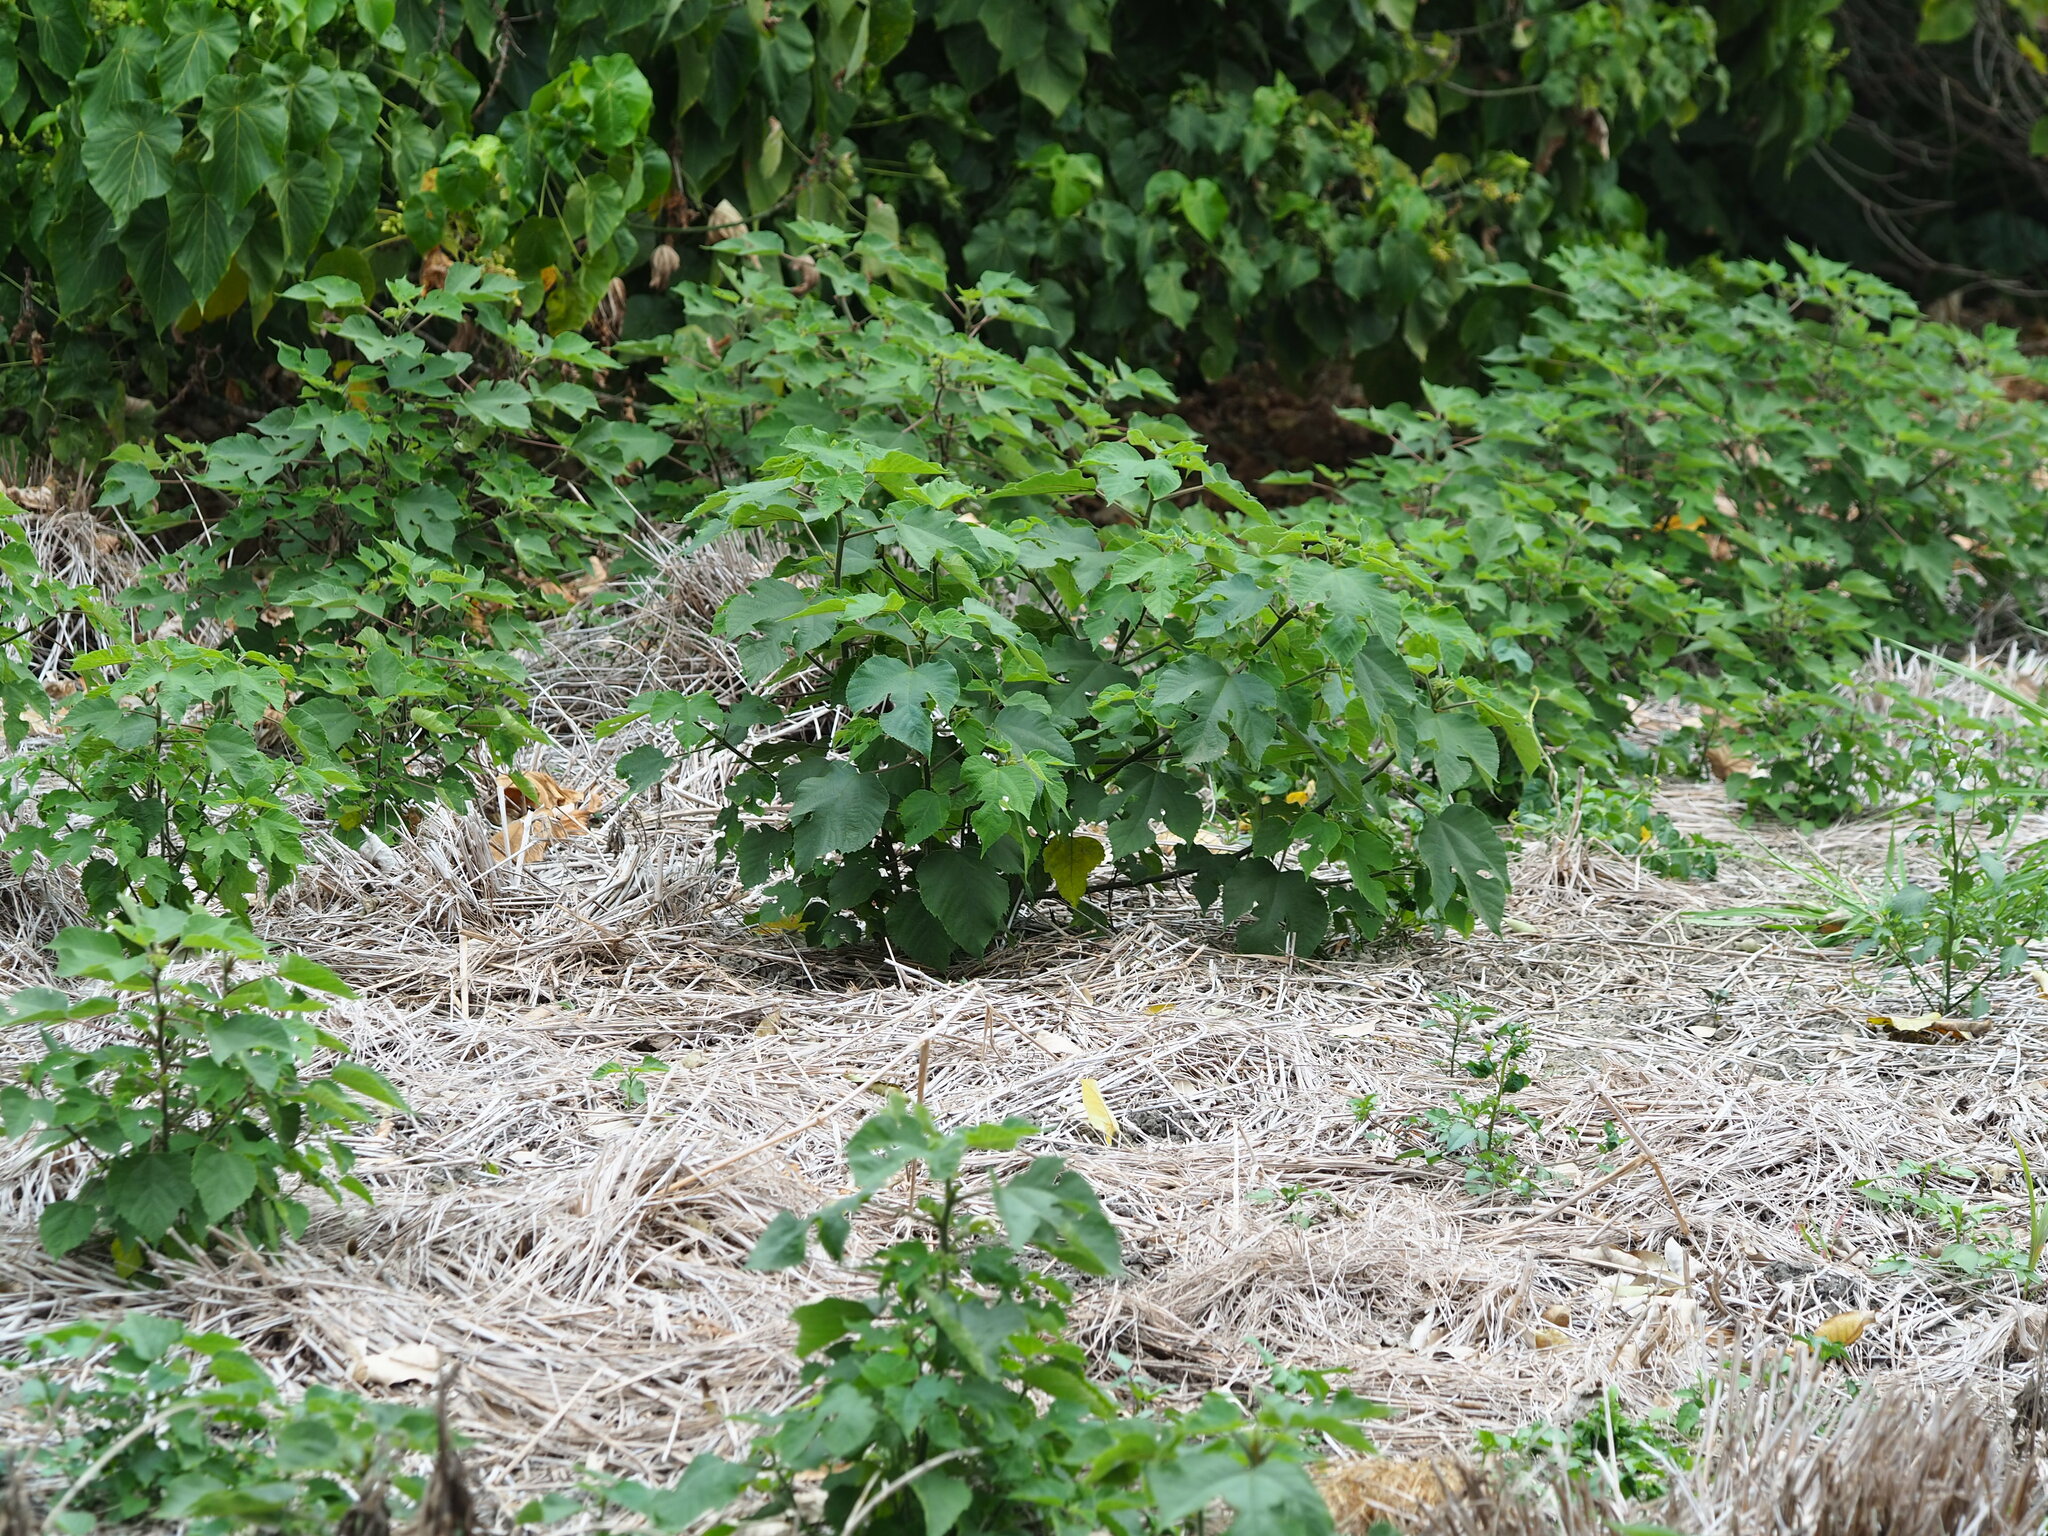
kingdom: Plantae
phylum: Tracheophyta
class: Magnoliopsida
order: Rosales
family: Moraceae
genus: Broussonetia
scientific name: Broussonetia papyrifera
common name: Paper mulberry
